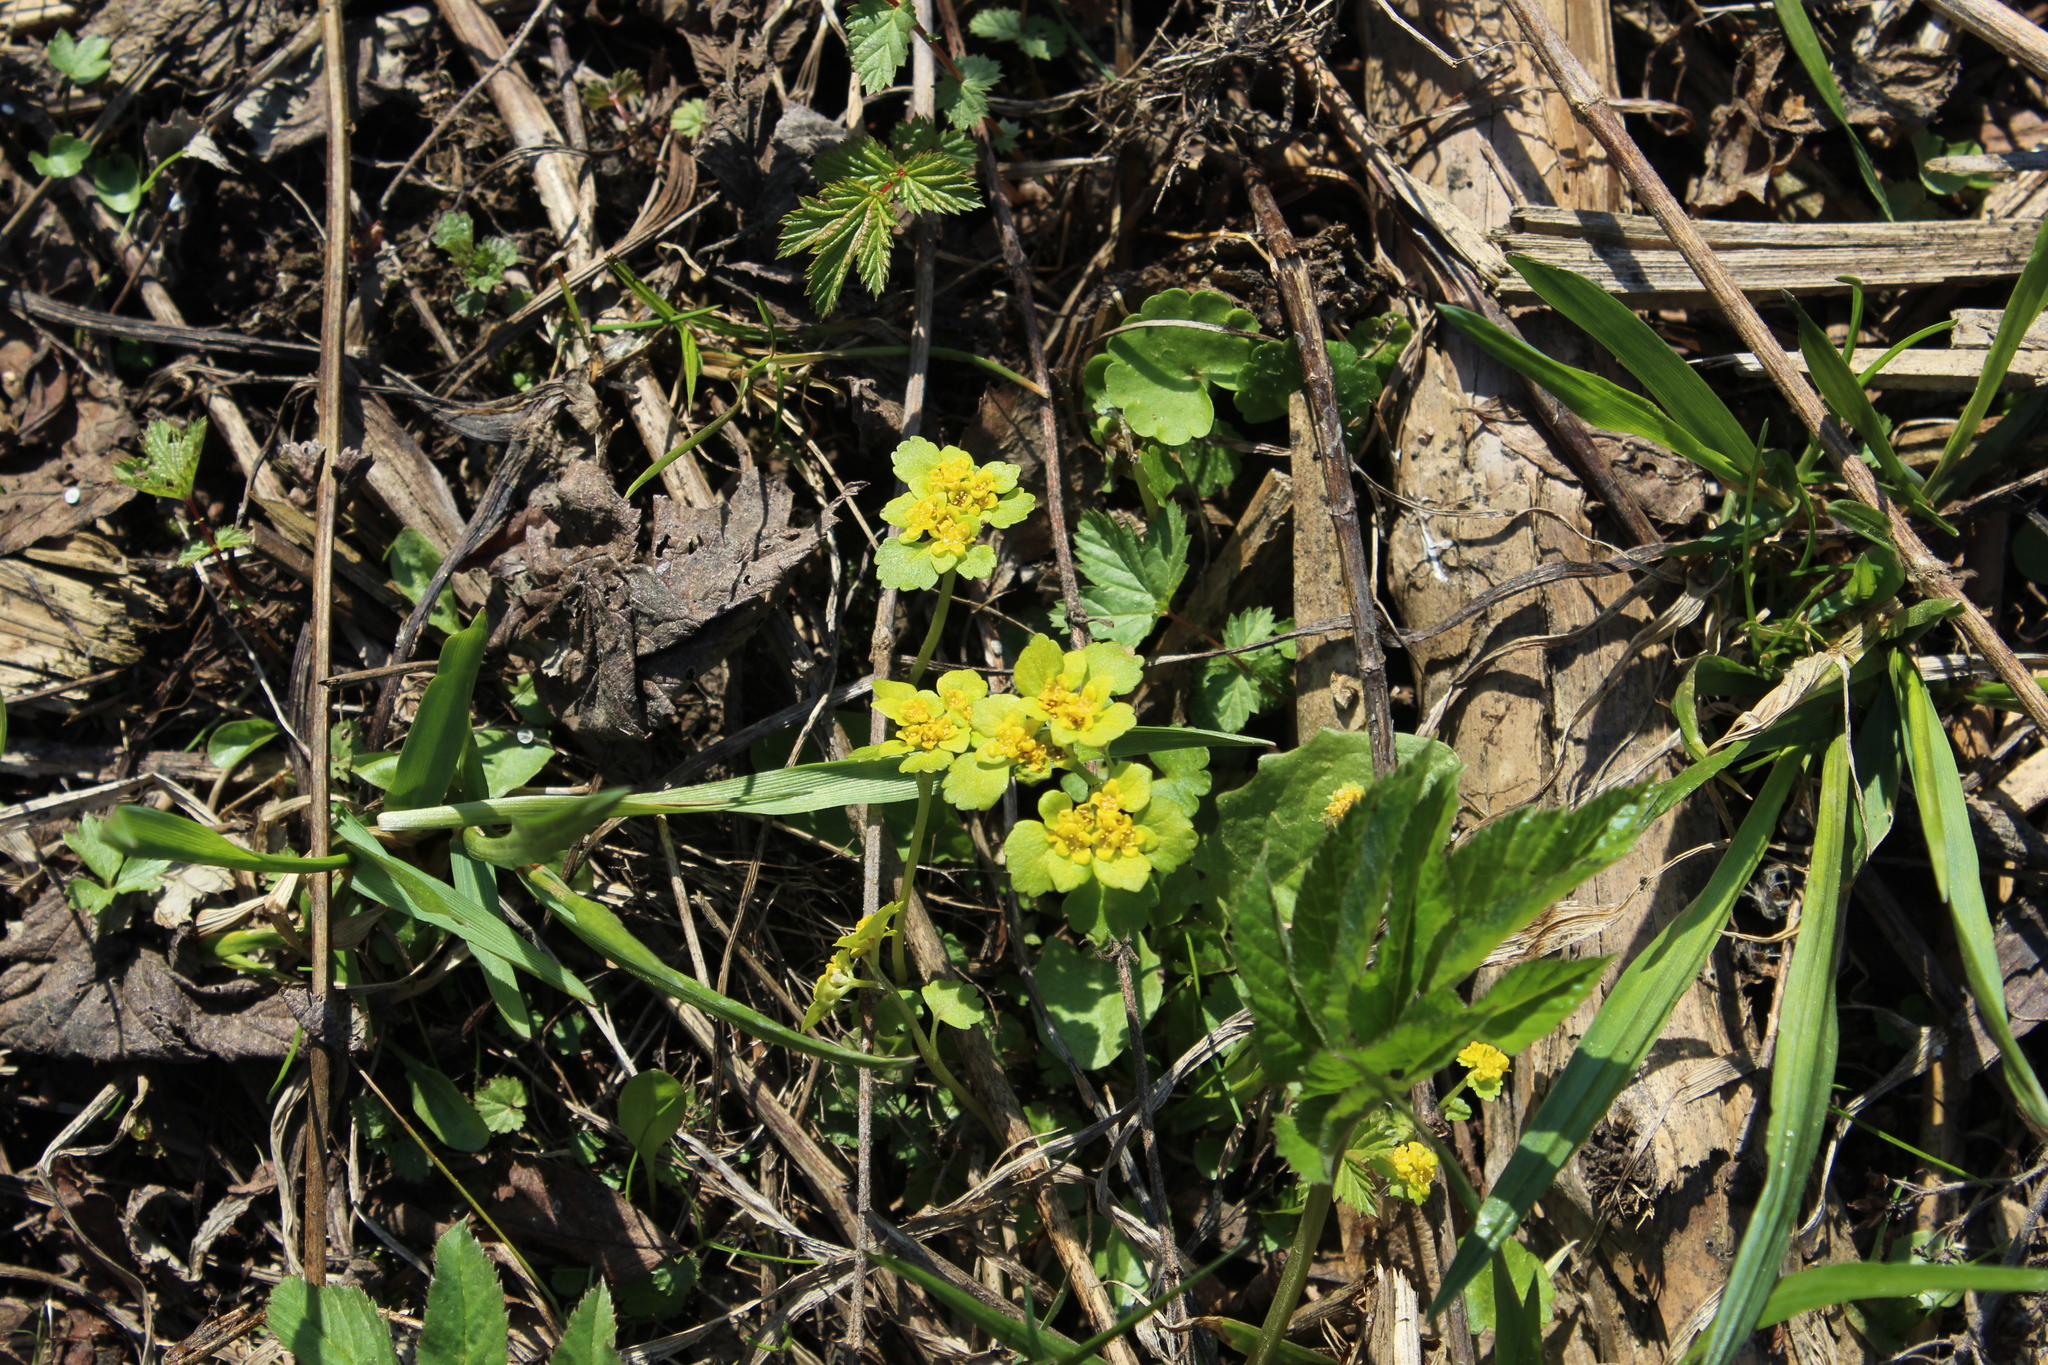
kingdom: Plantae
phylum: Tracheophyta
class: Magnoliopsida
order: Saxifragales
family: Saxifragaceae
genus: Chrysosplenium
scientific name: Chrysosplenium alternifolium
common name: Alternate-leaved golden-saxifrage
